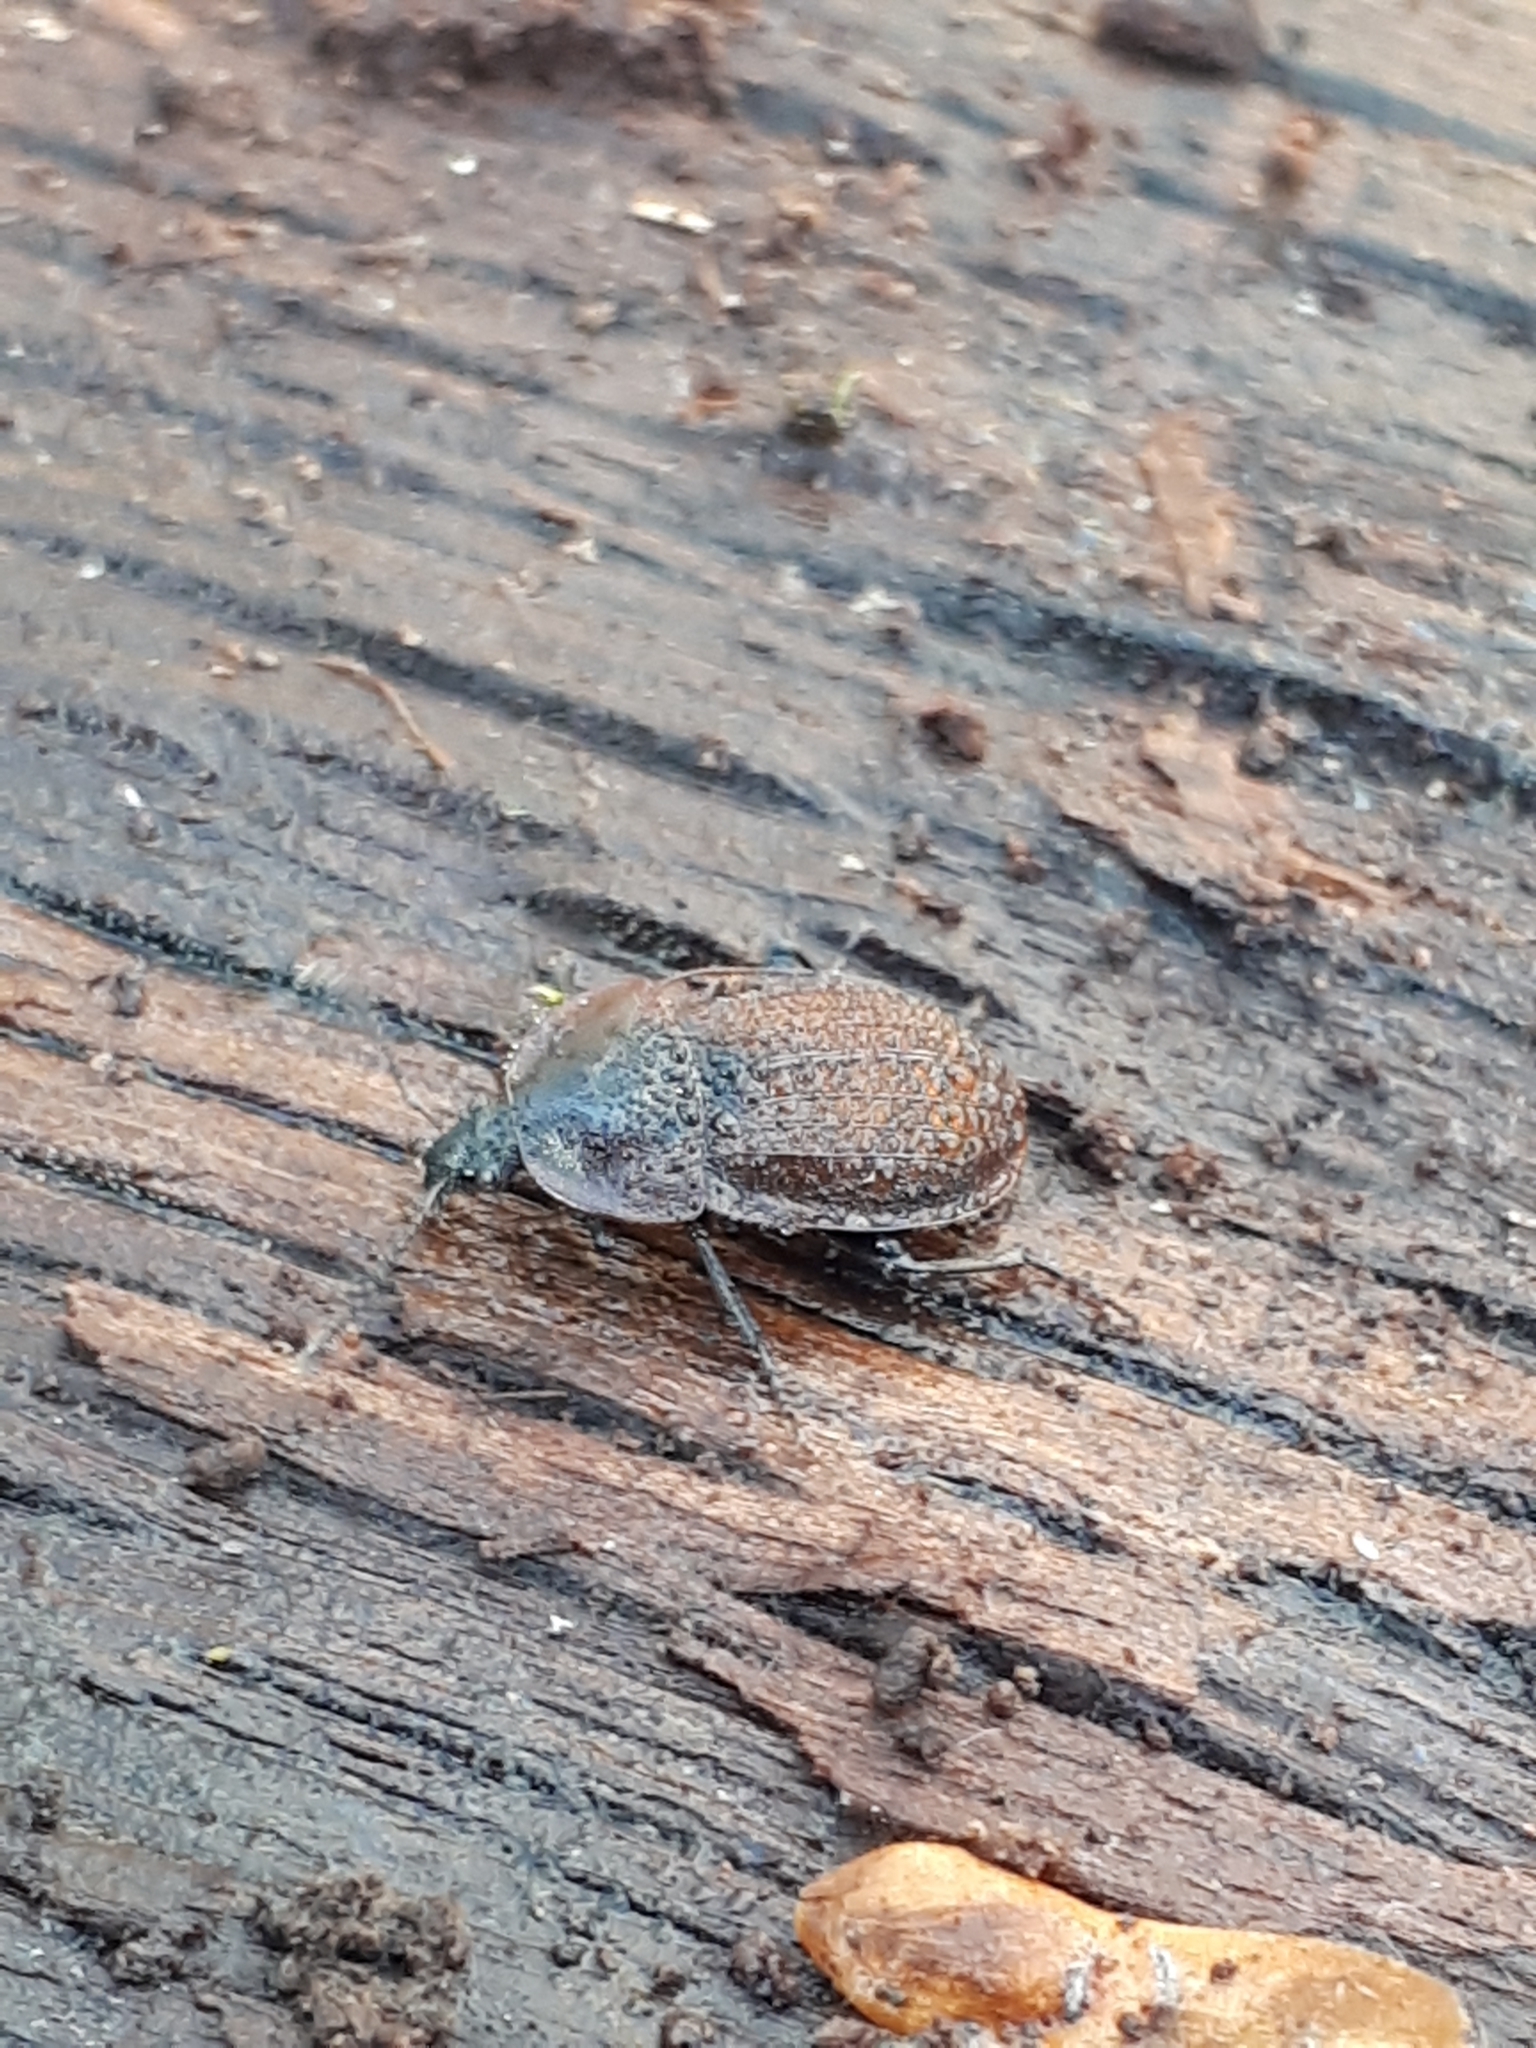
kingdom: Animalia
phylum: Arthropoda
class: Insecta
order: Coleoptera
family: Staphylinidae
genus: Silpha
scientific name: Silpha atrata
